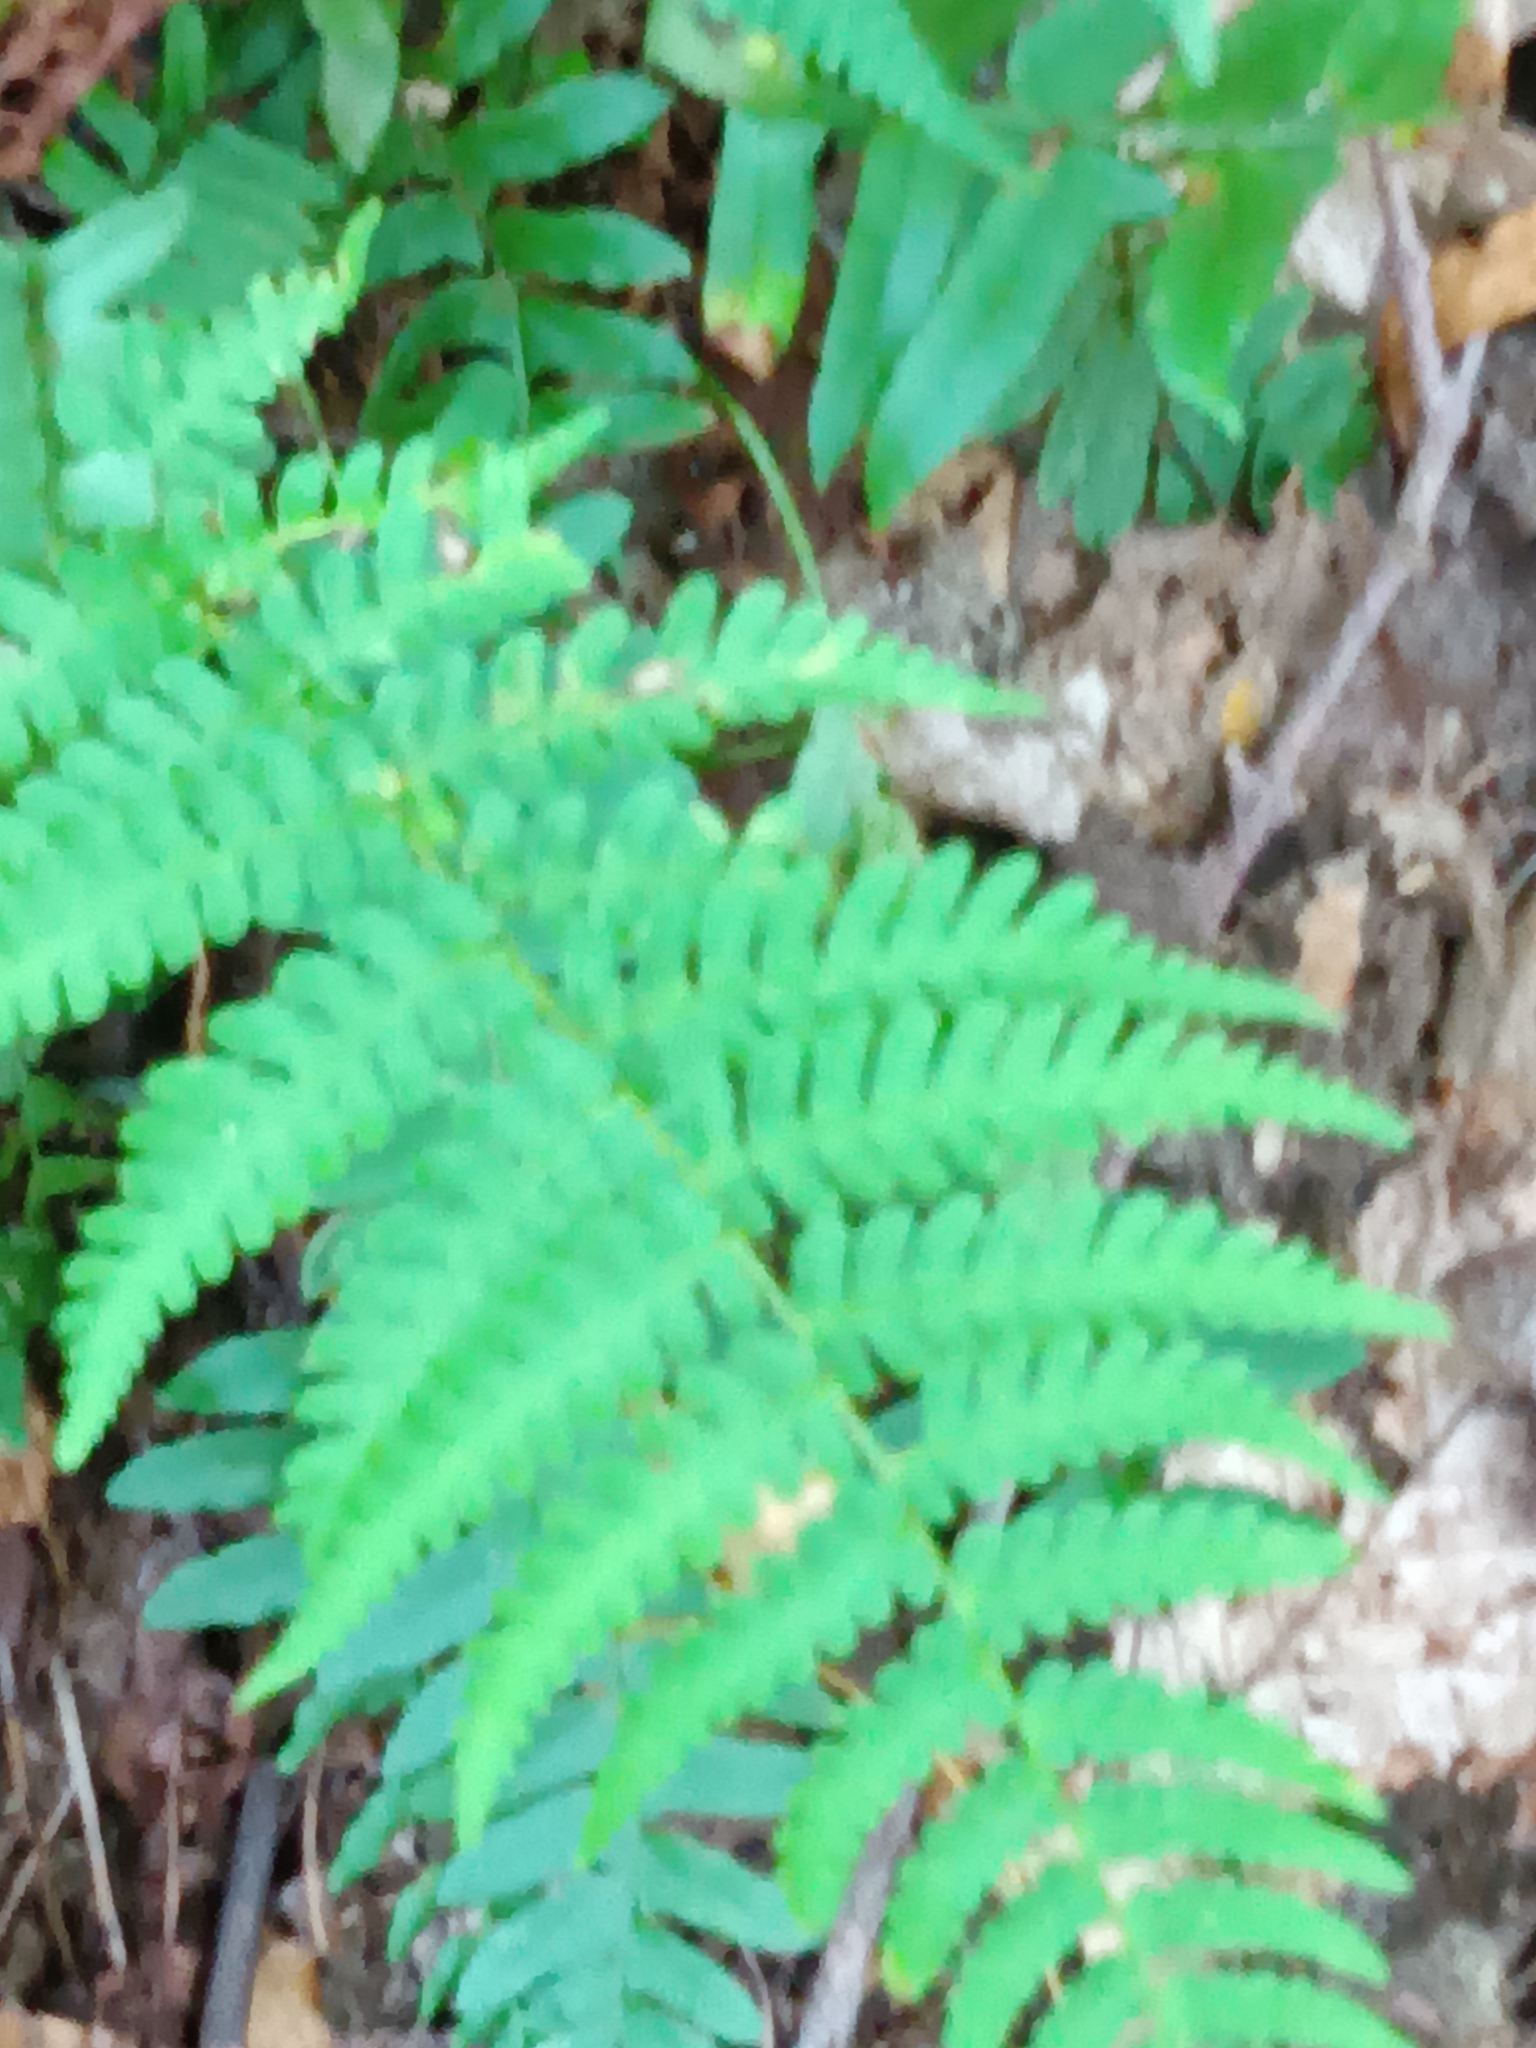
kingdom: Plantae
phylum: Tracheophyta
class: Polypodiopsida
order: Polypodiales
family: Dryopteridaceae
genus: Dryopteris
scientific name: Dryopteris marginalis
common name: Marginal wood fern
